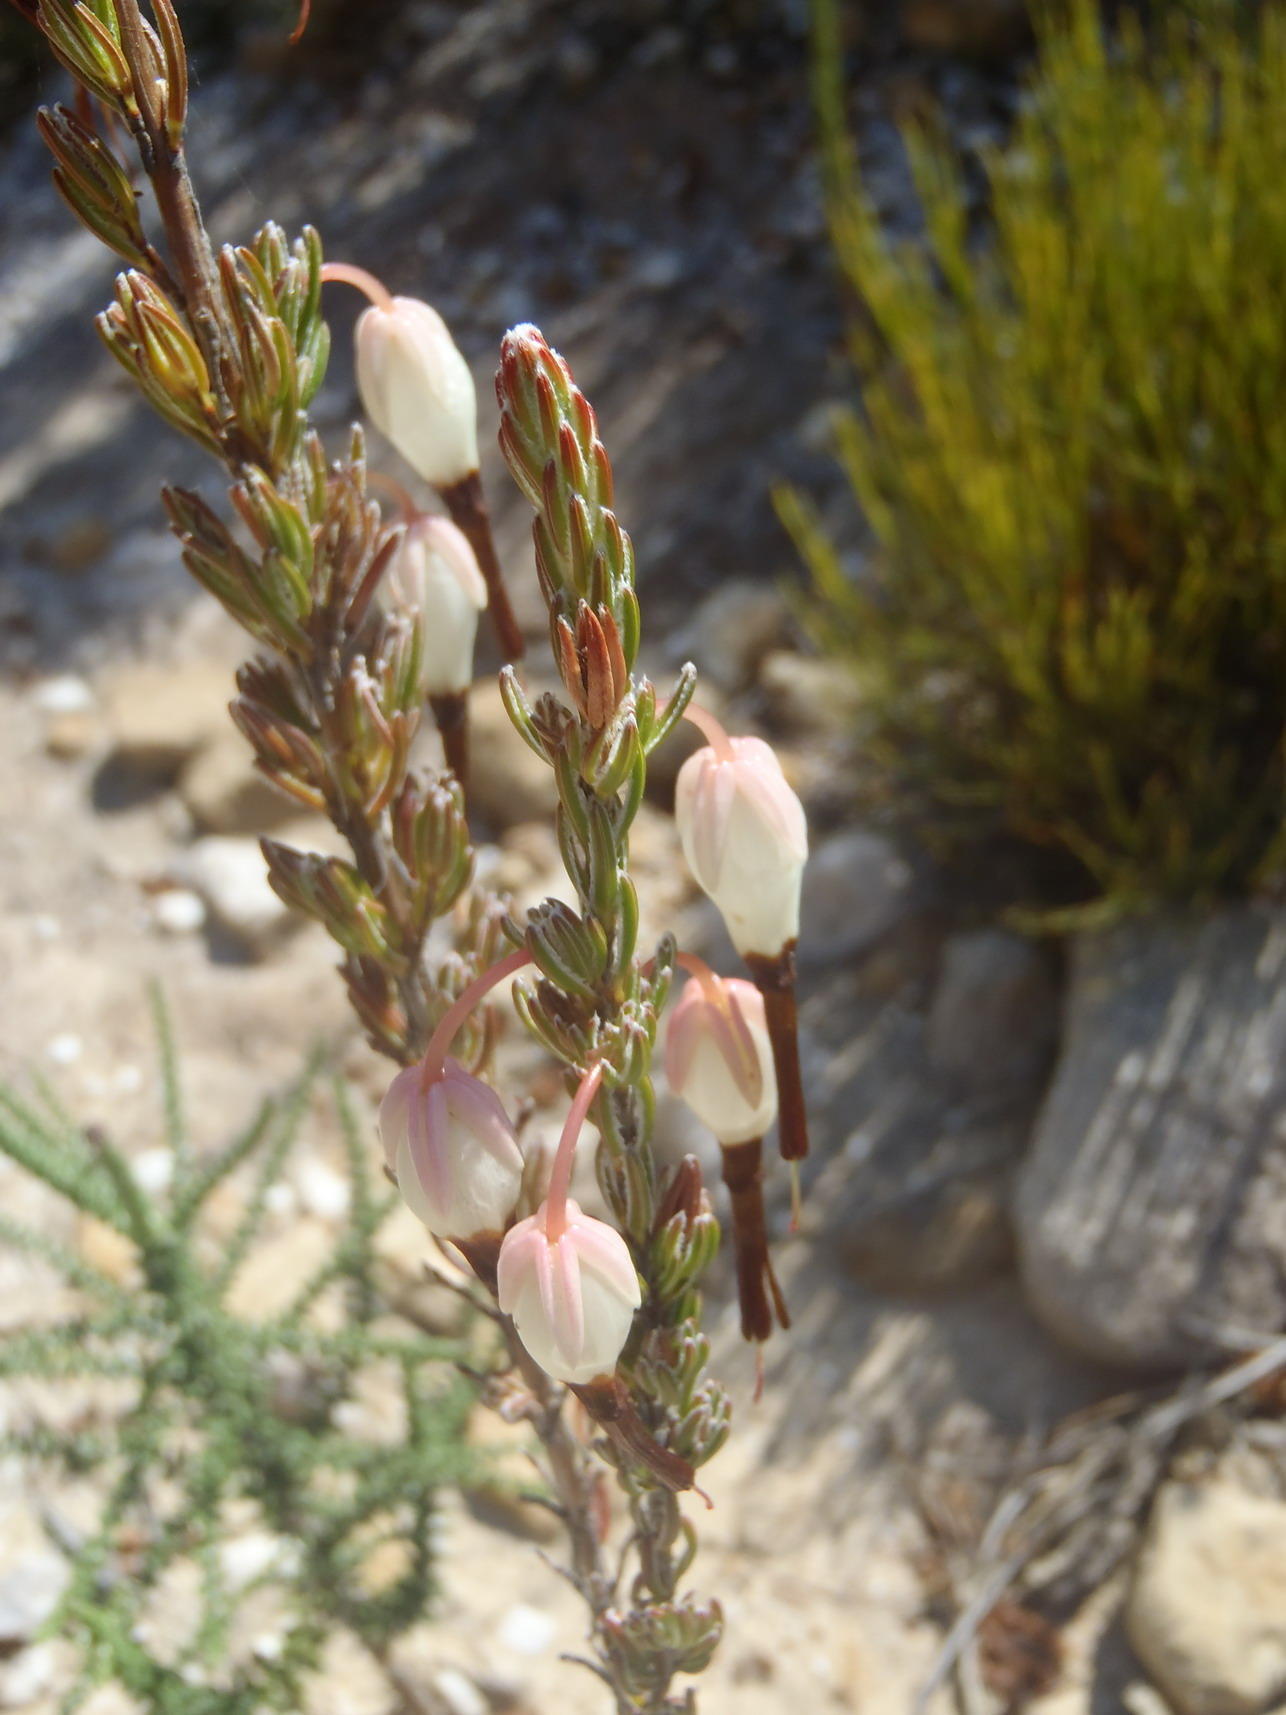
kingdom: Plantae
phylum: Tracheophyta
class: Magnoliopsida
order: Ericales
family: Ericaceae
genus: Erica
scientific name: Erica plukenetii
